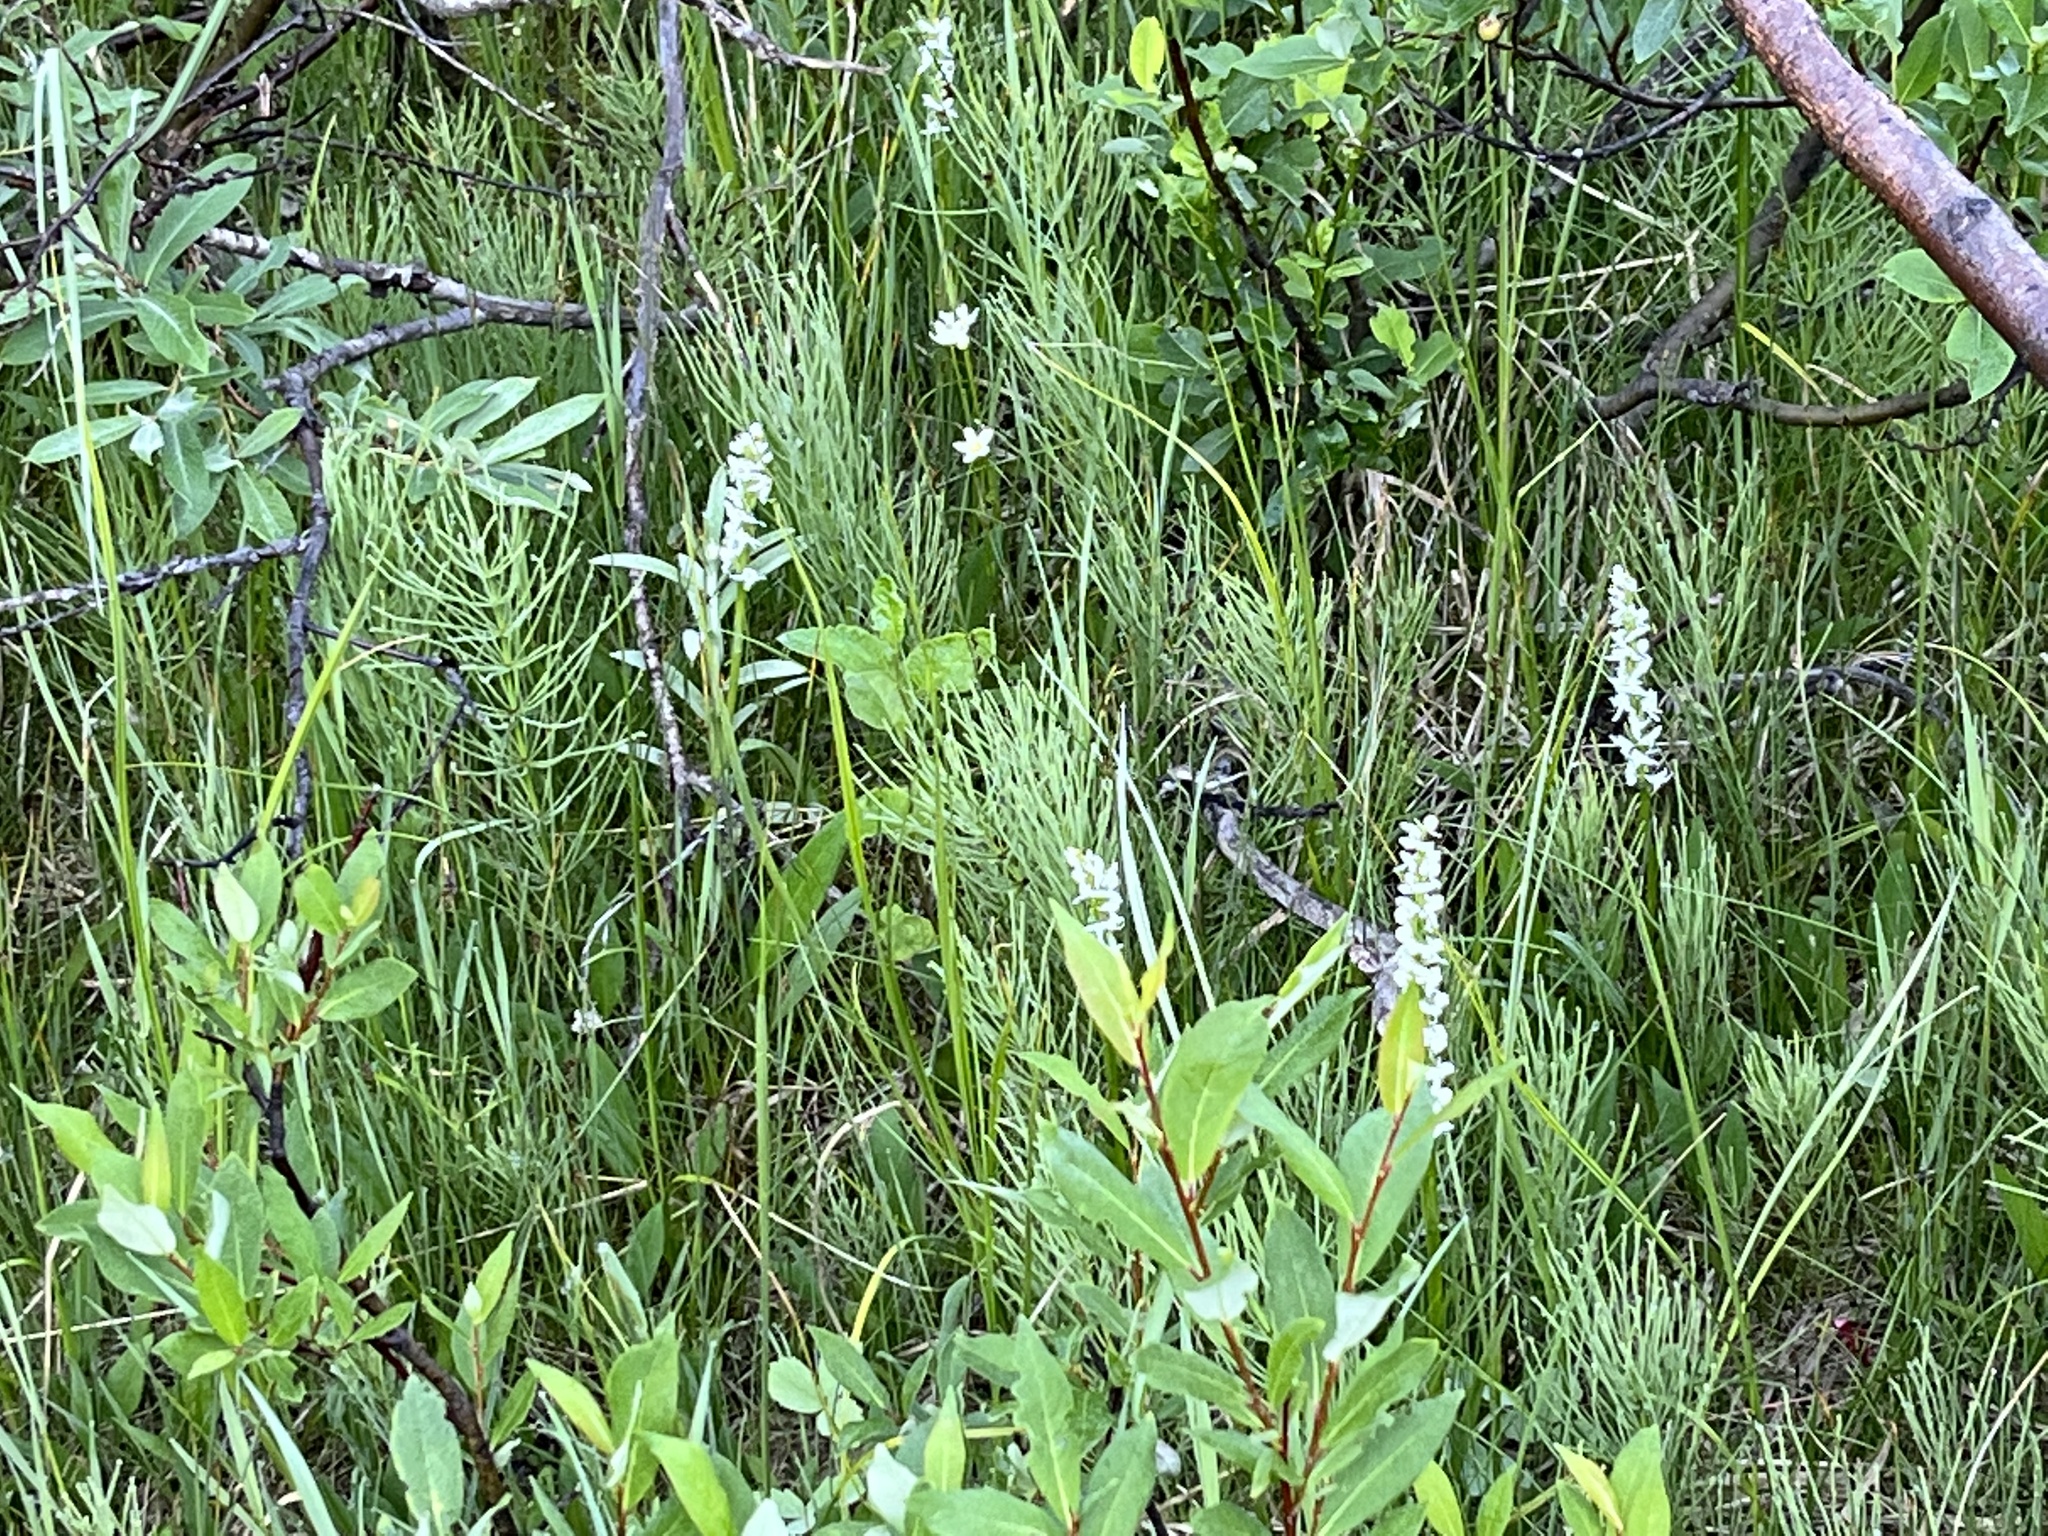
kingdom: Plantae
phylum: Tracheophyta
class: Liliopsida
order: Asparagales
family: Orchidaceae
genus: Platanthera
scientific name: Platanthera dilatata
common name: Bog candles
